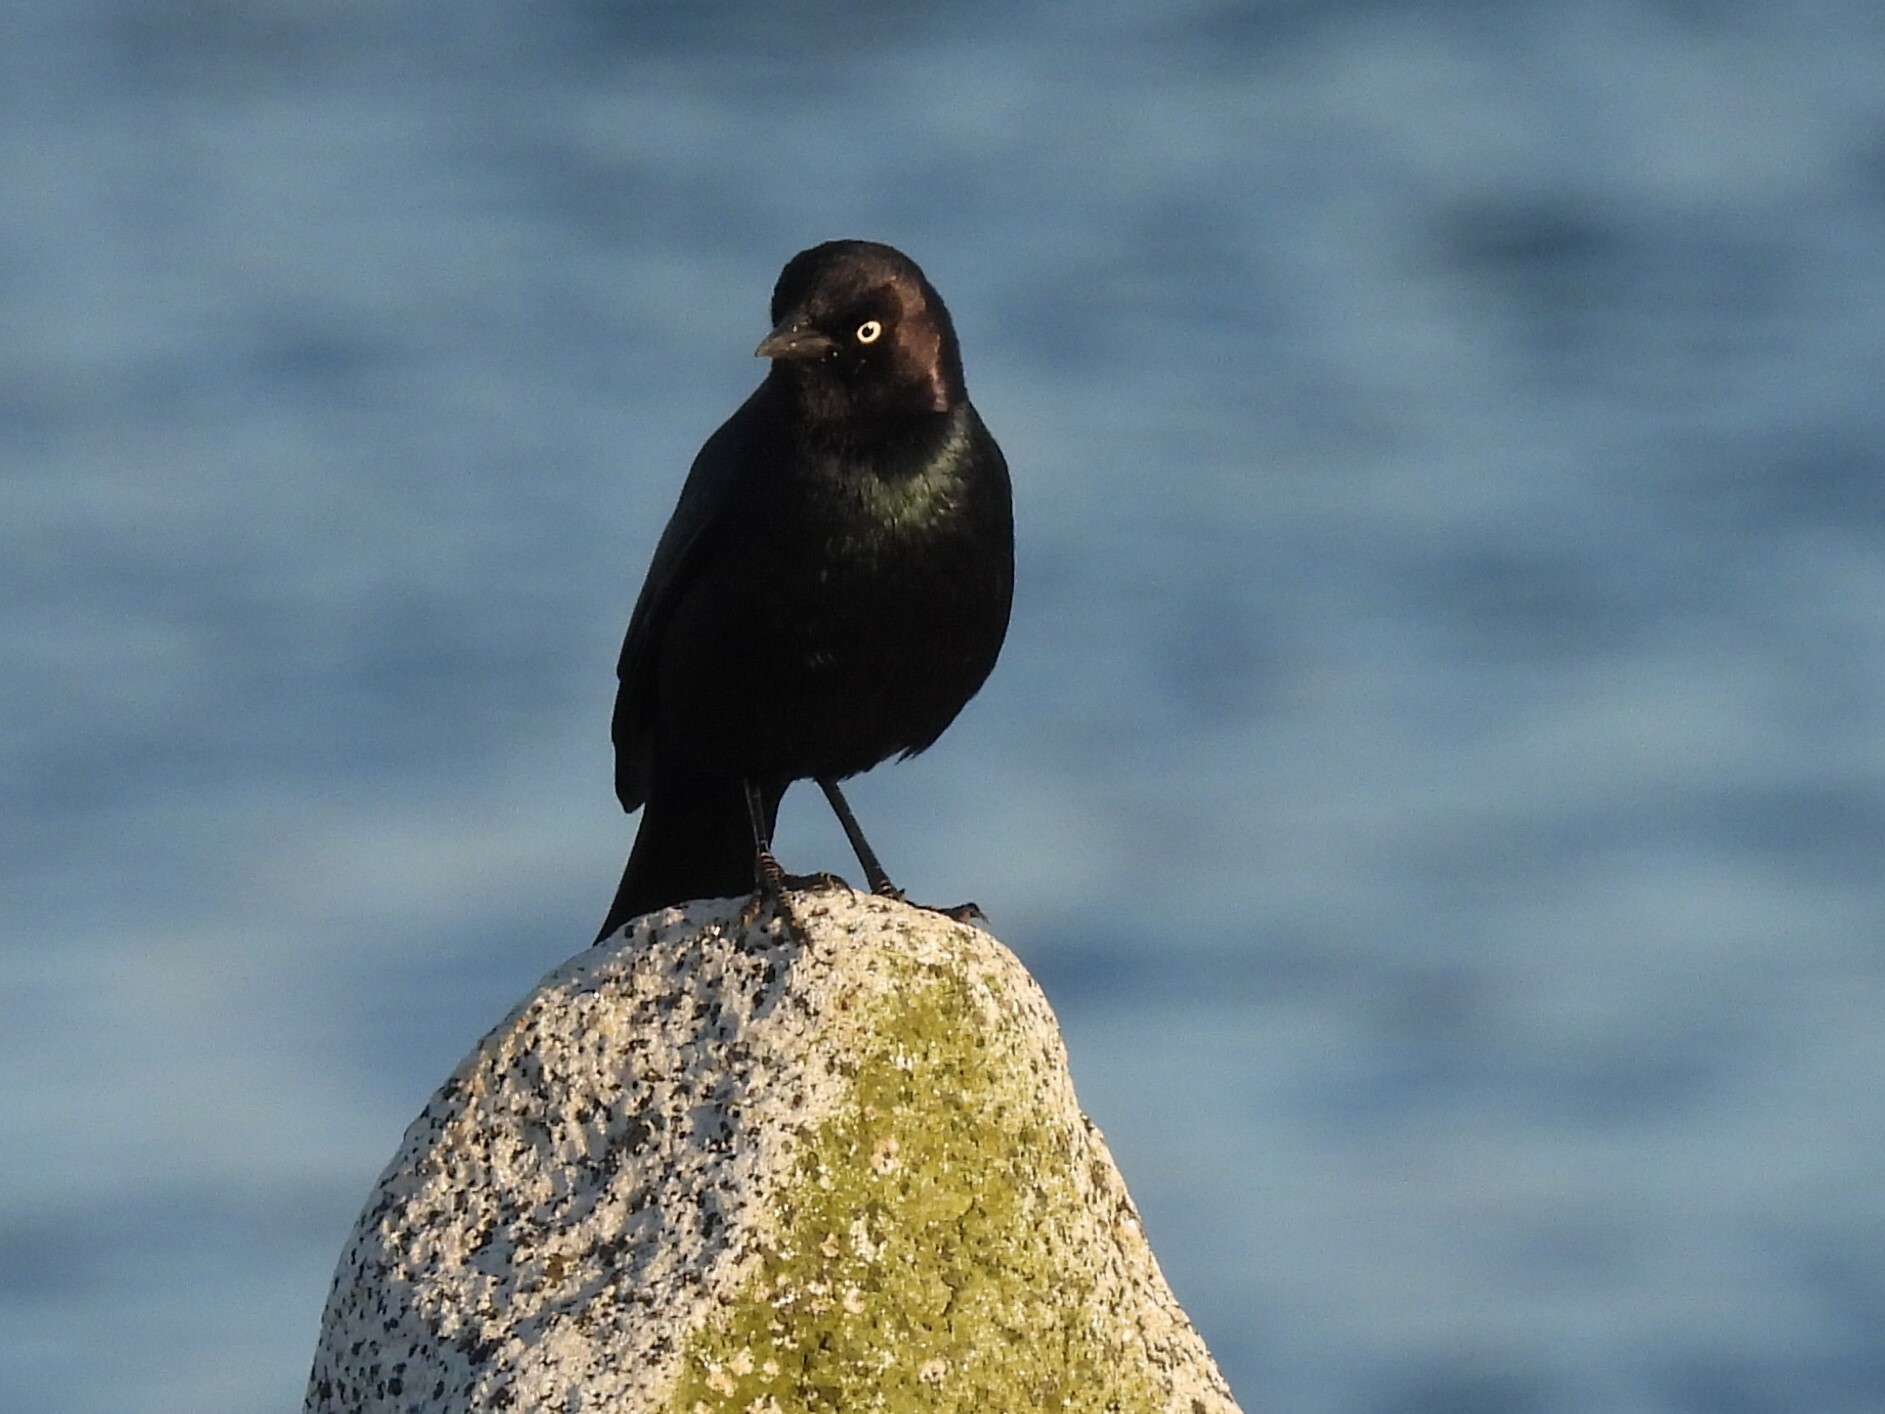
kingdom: Animalia
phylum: Chordata
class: Aves
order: Passeriformes
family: Icteridae
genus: Euphagus
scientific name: Euphagus cyanocephalus
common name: Brewer's blackbird
